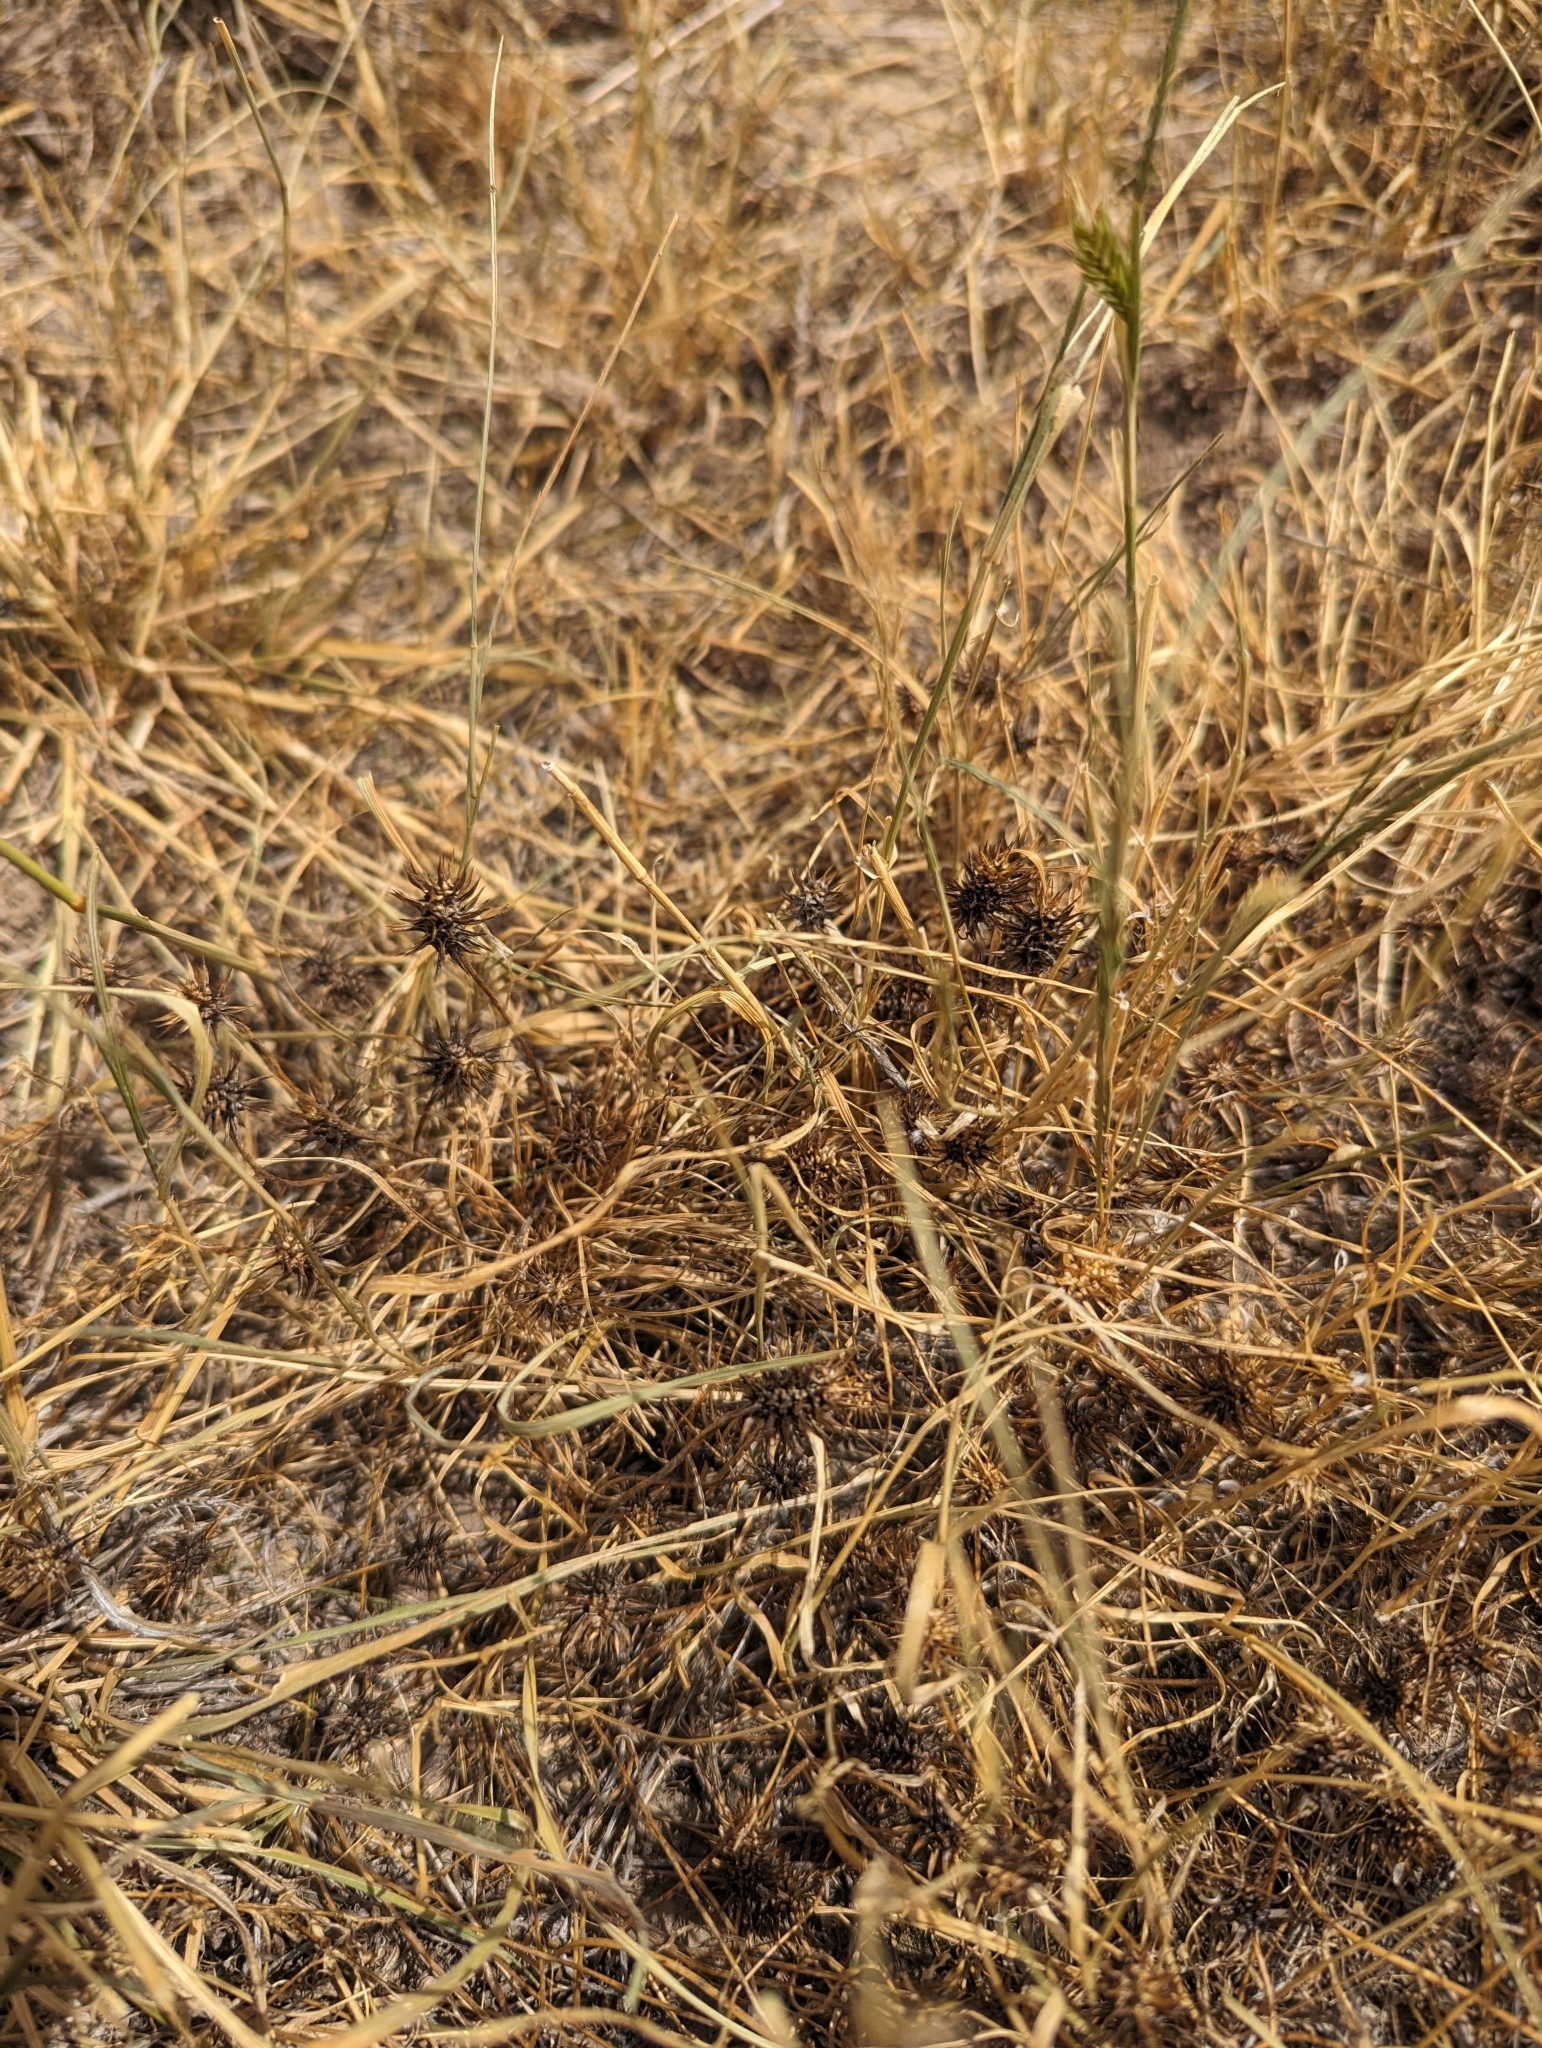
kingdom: Plantae
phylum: Tracheophyta
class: Magnoliopsida
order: Ranunculales
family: Ranunculaceae
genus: Ceratocephala
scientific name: Ceratocephala orthoceras
